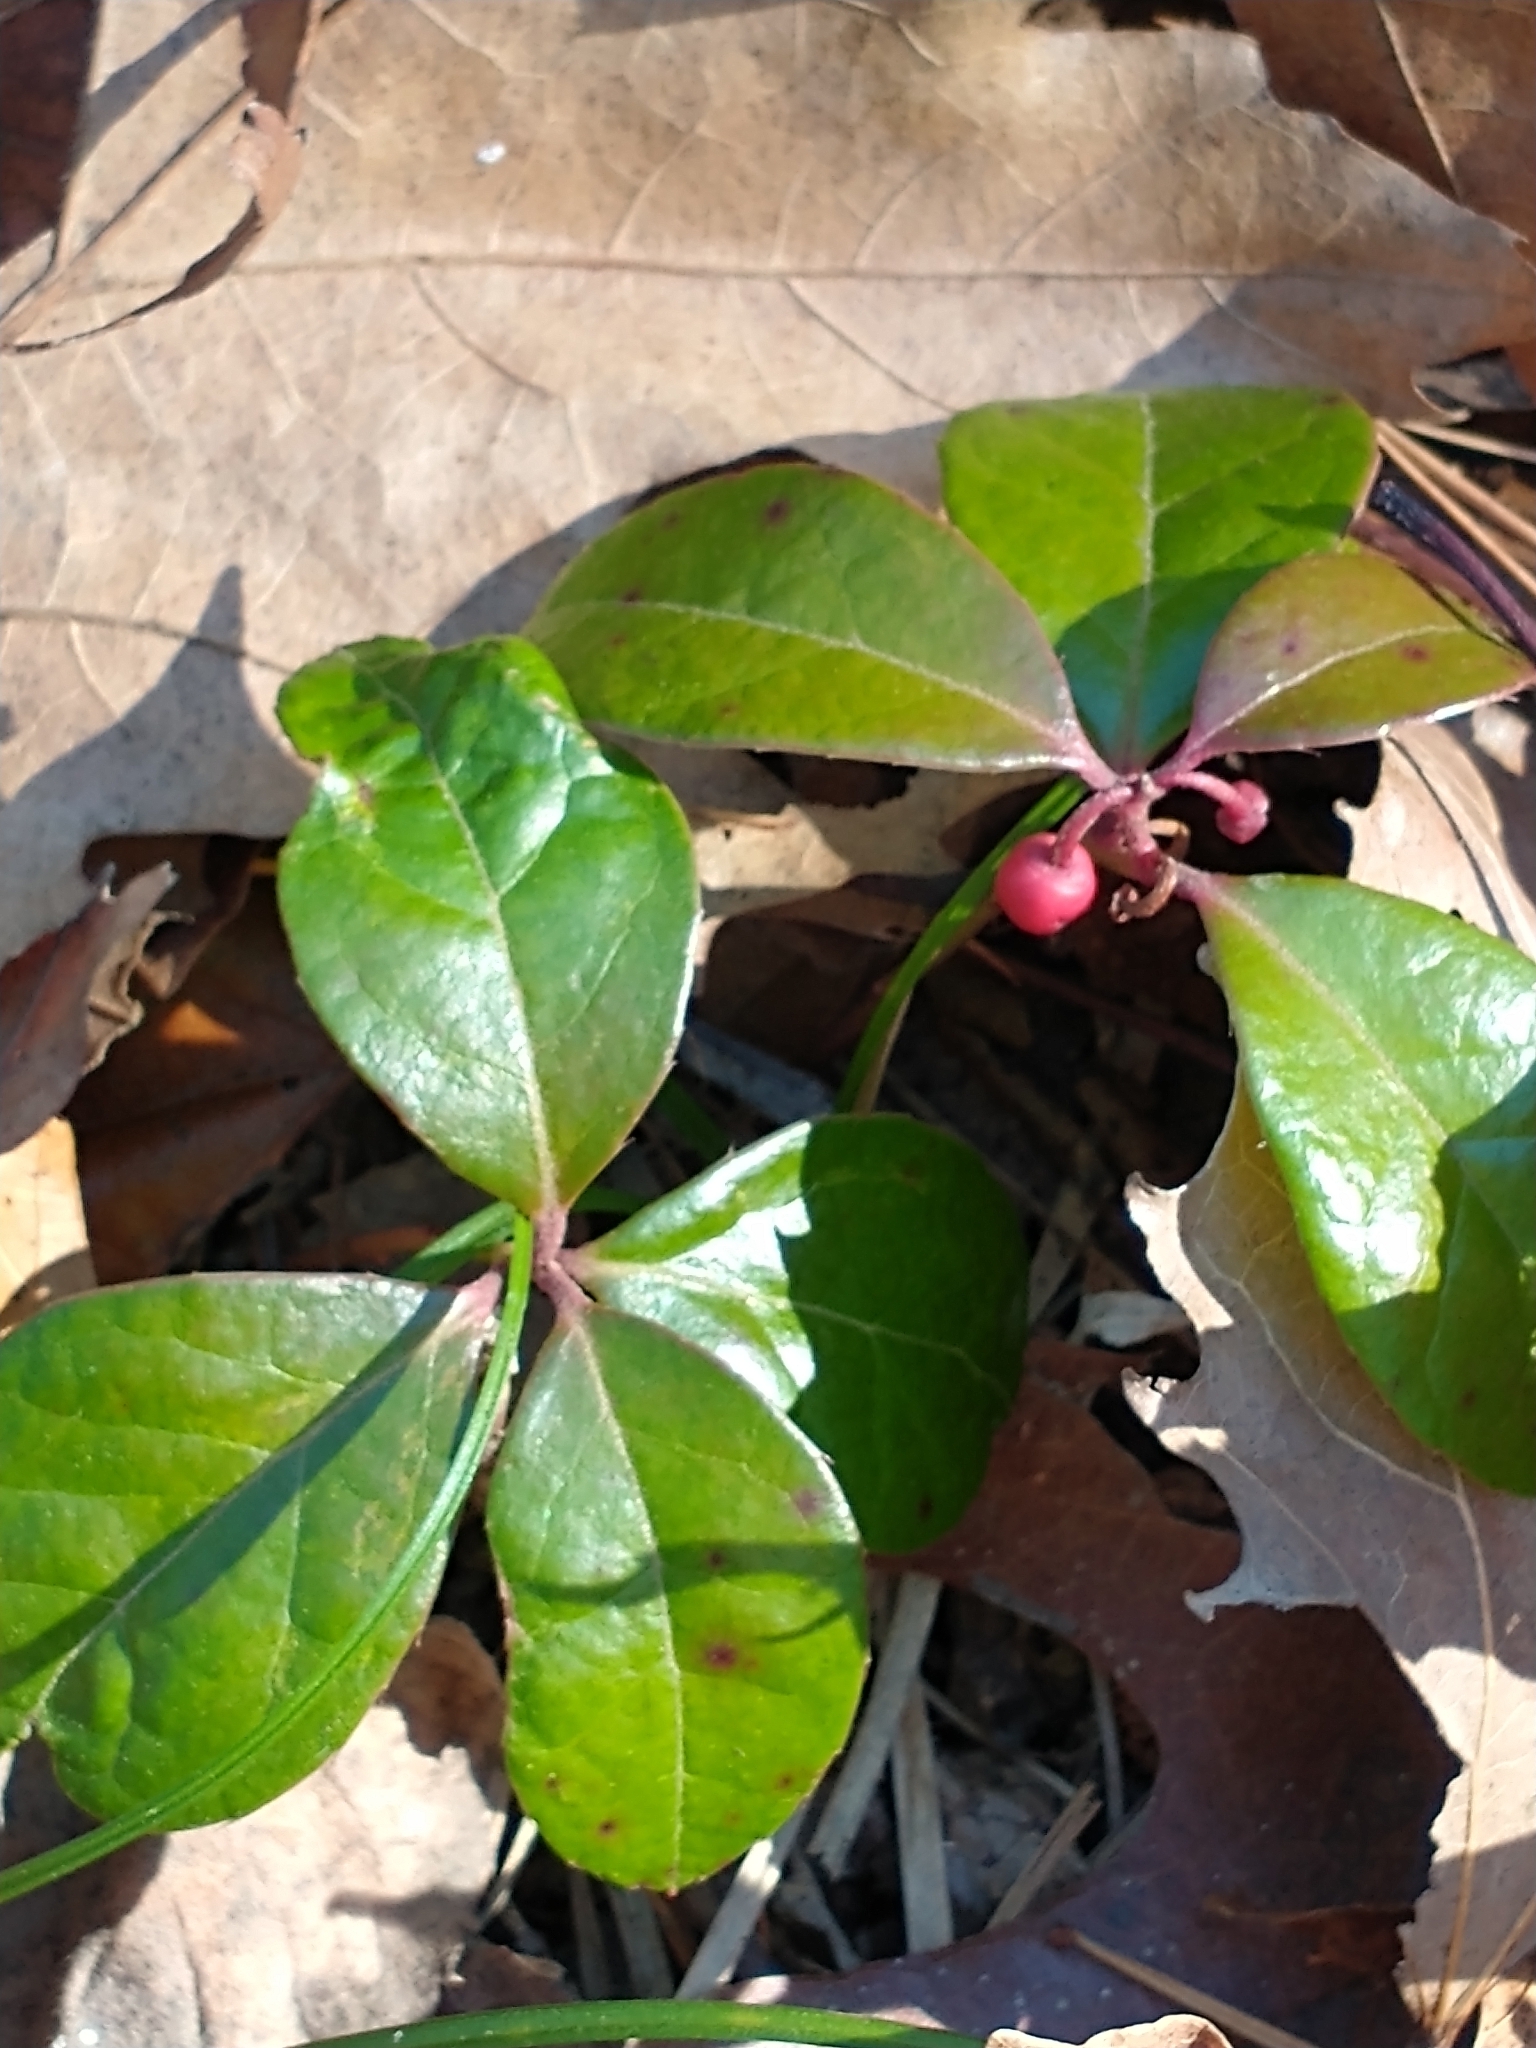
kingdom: Plantae
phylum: Tracheophyta
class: Magnoliopsida
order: Ericales
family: Ericaceae
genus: Gaultheria
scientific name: Gaultheria procumbens
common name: Checkerberry
